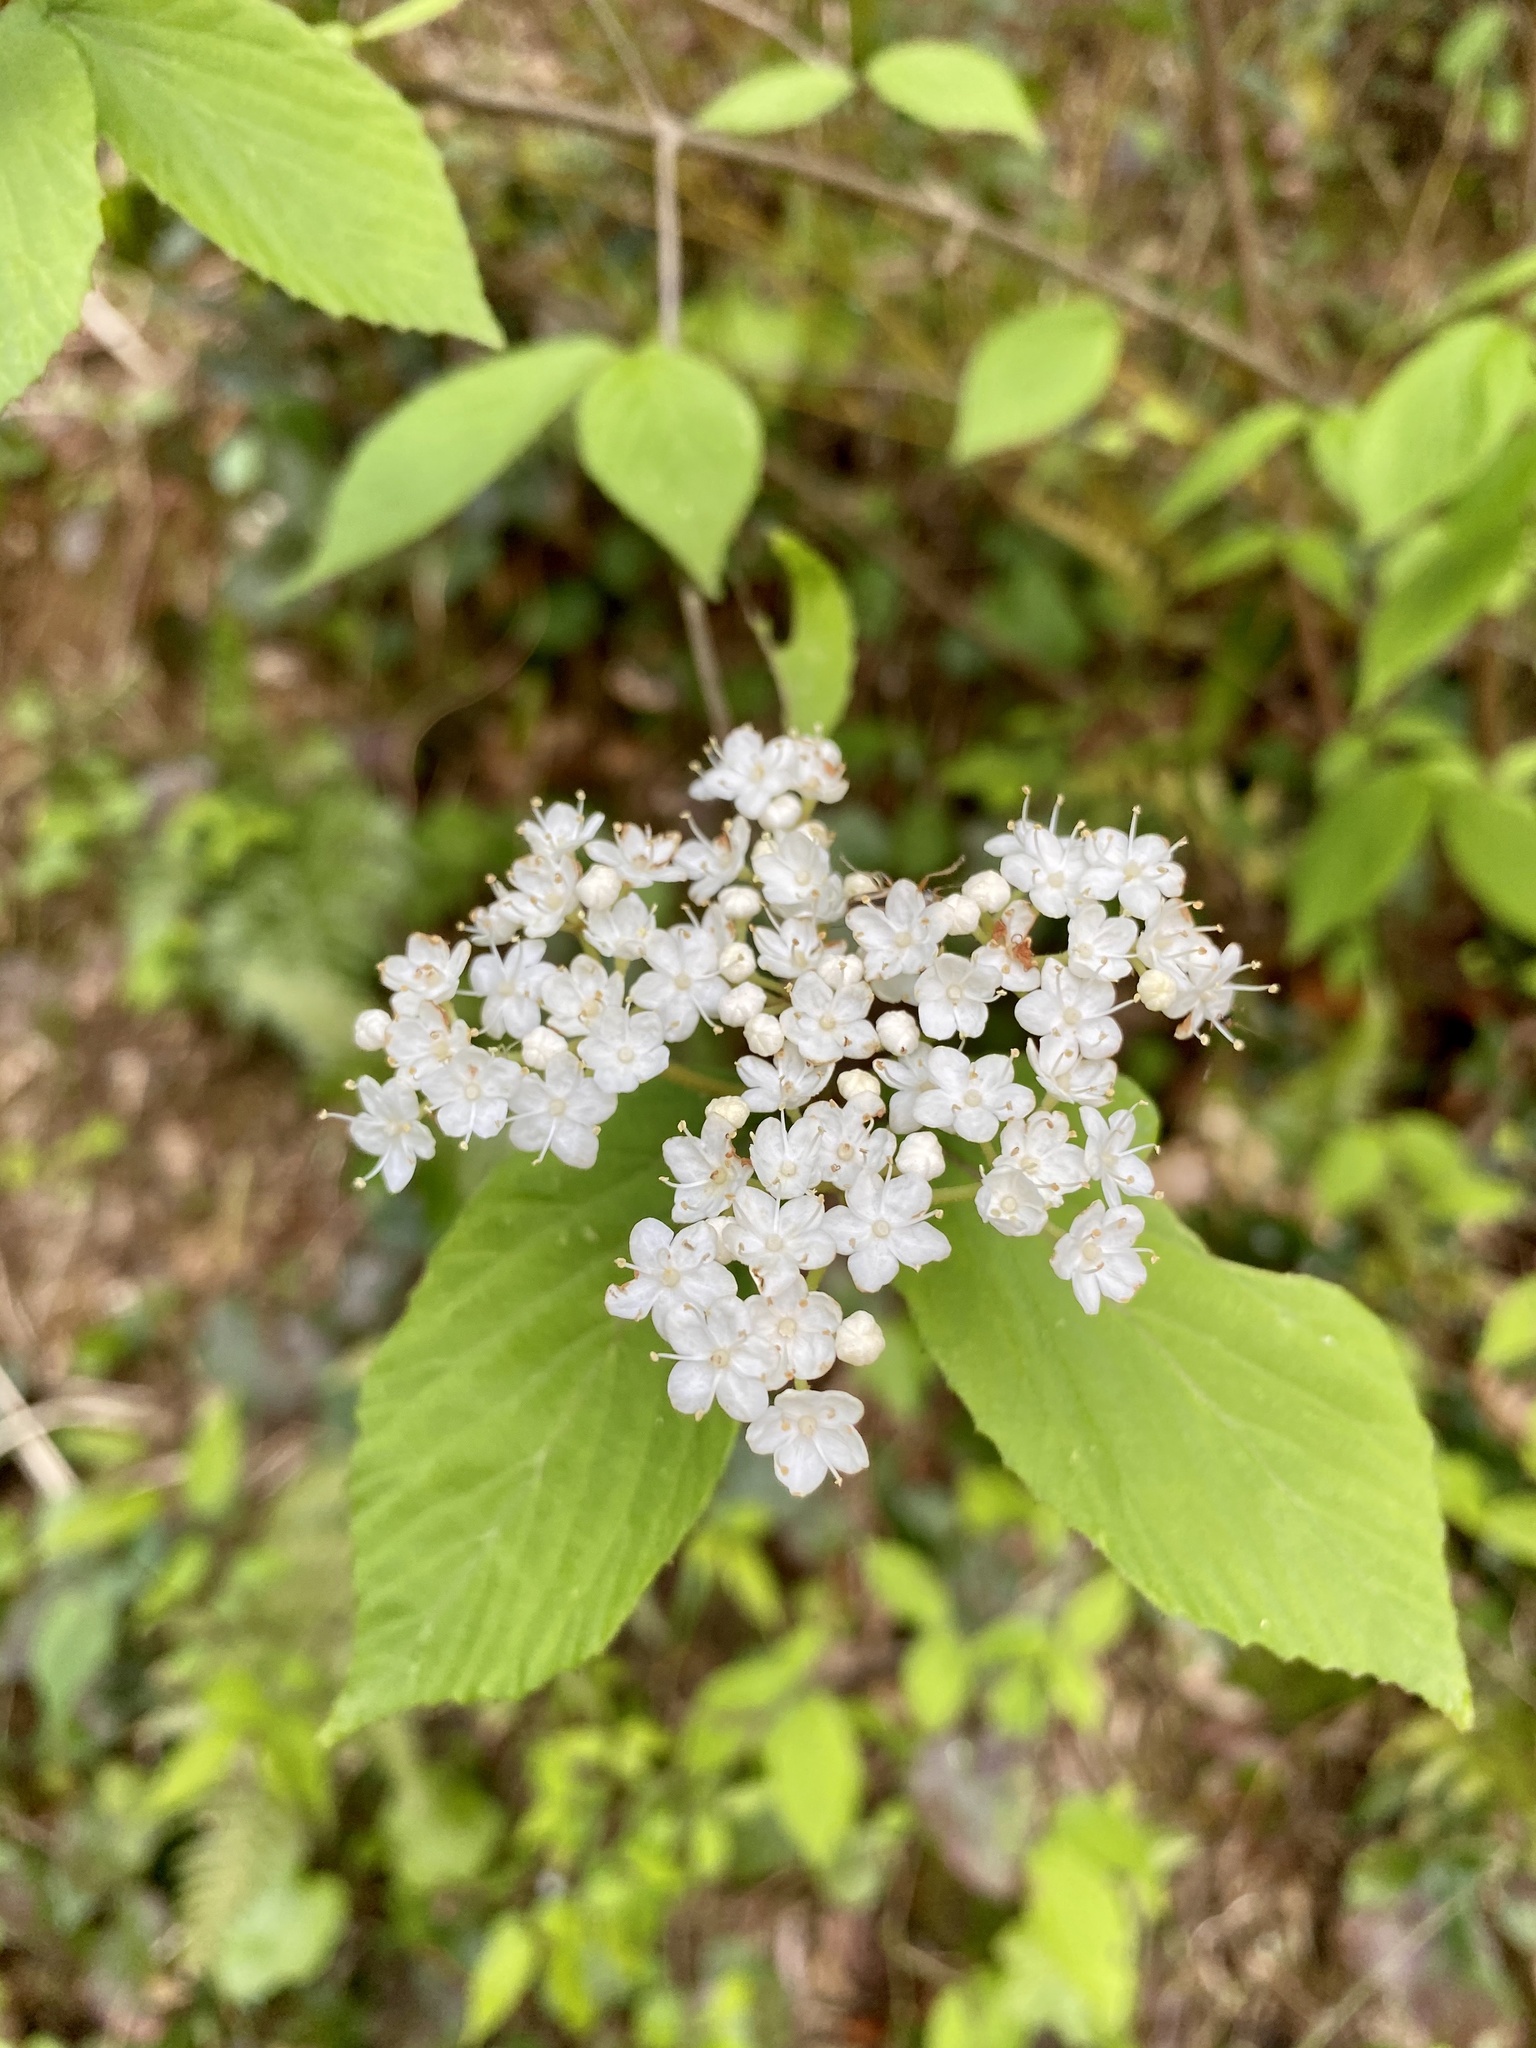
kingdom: Plantae
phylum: Tracheophyta
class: Magnoliopsida
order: Dipsacales
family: Viburnaceae
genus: Viburnum
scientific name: Viburnum erosum
